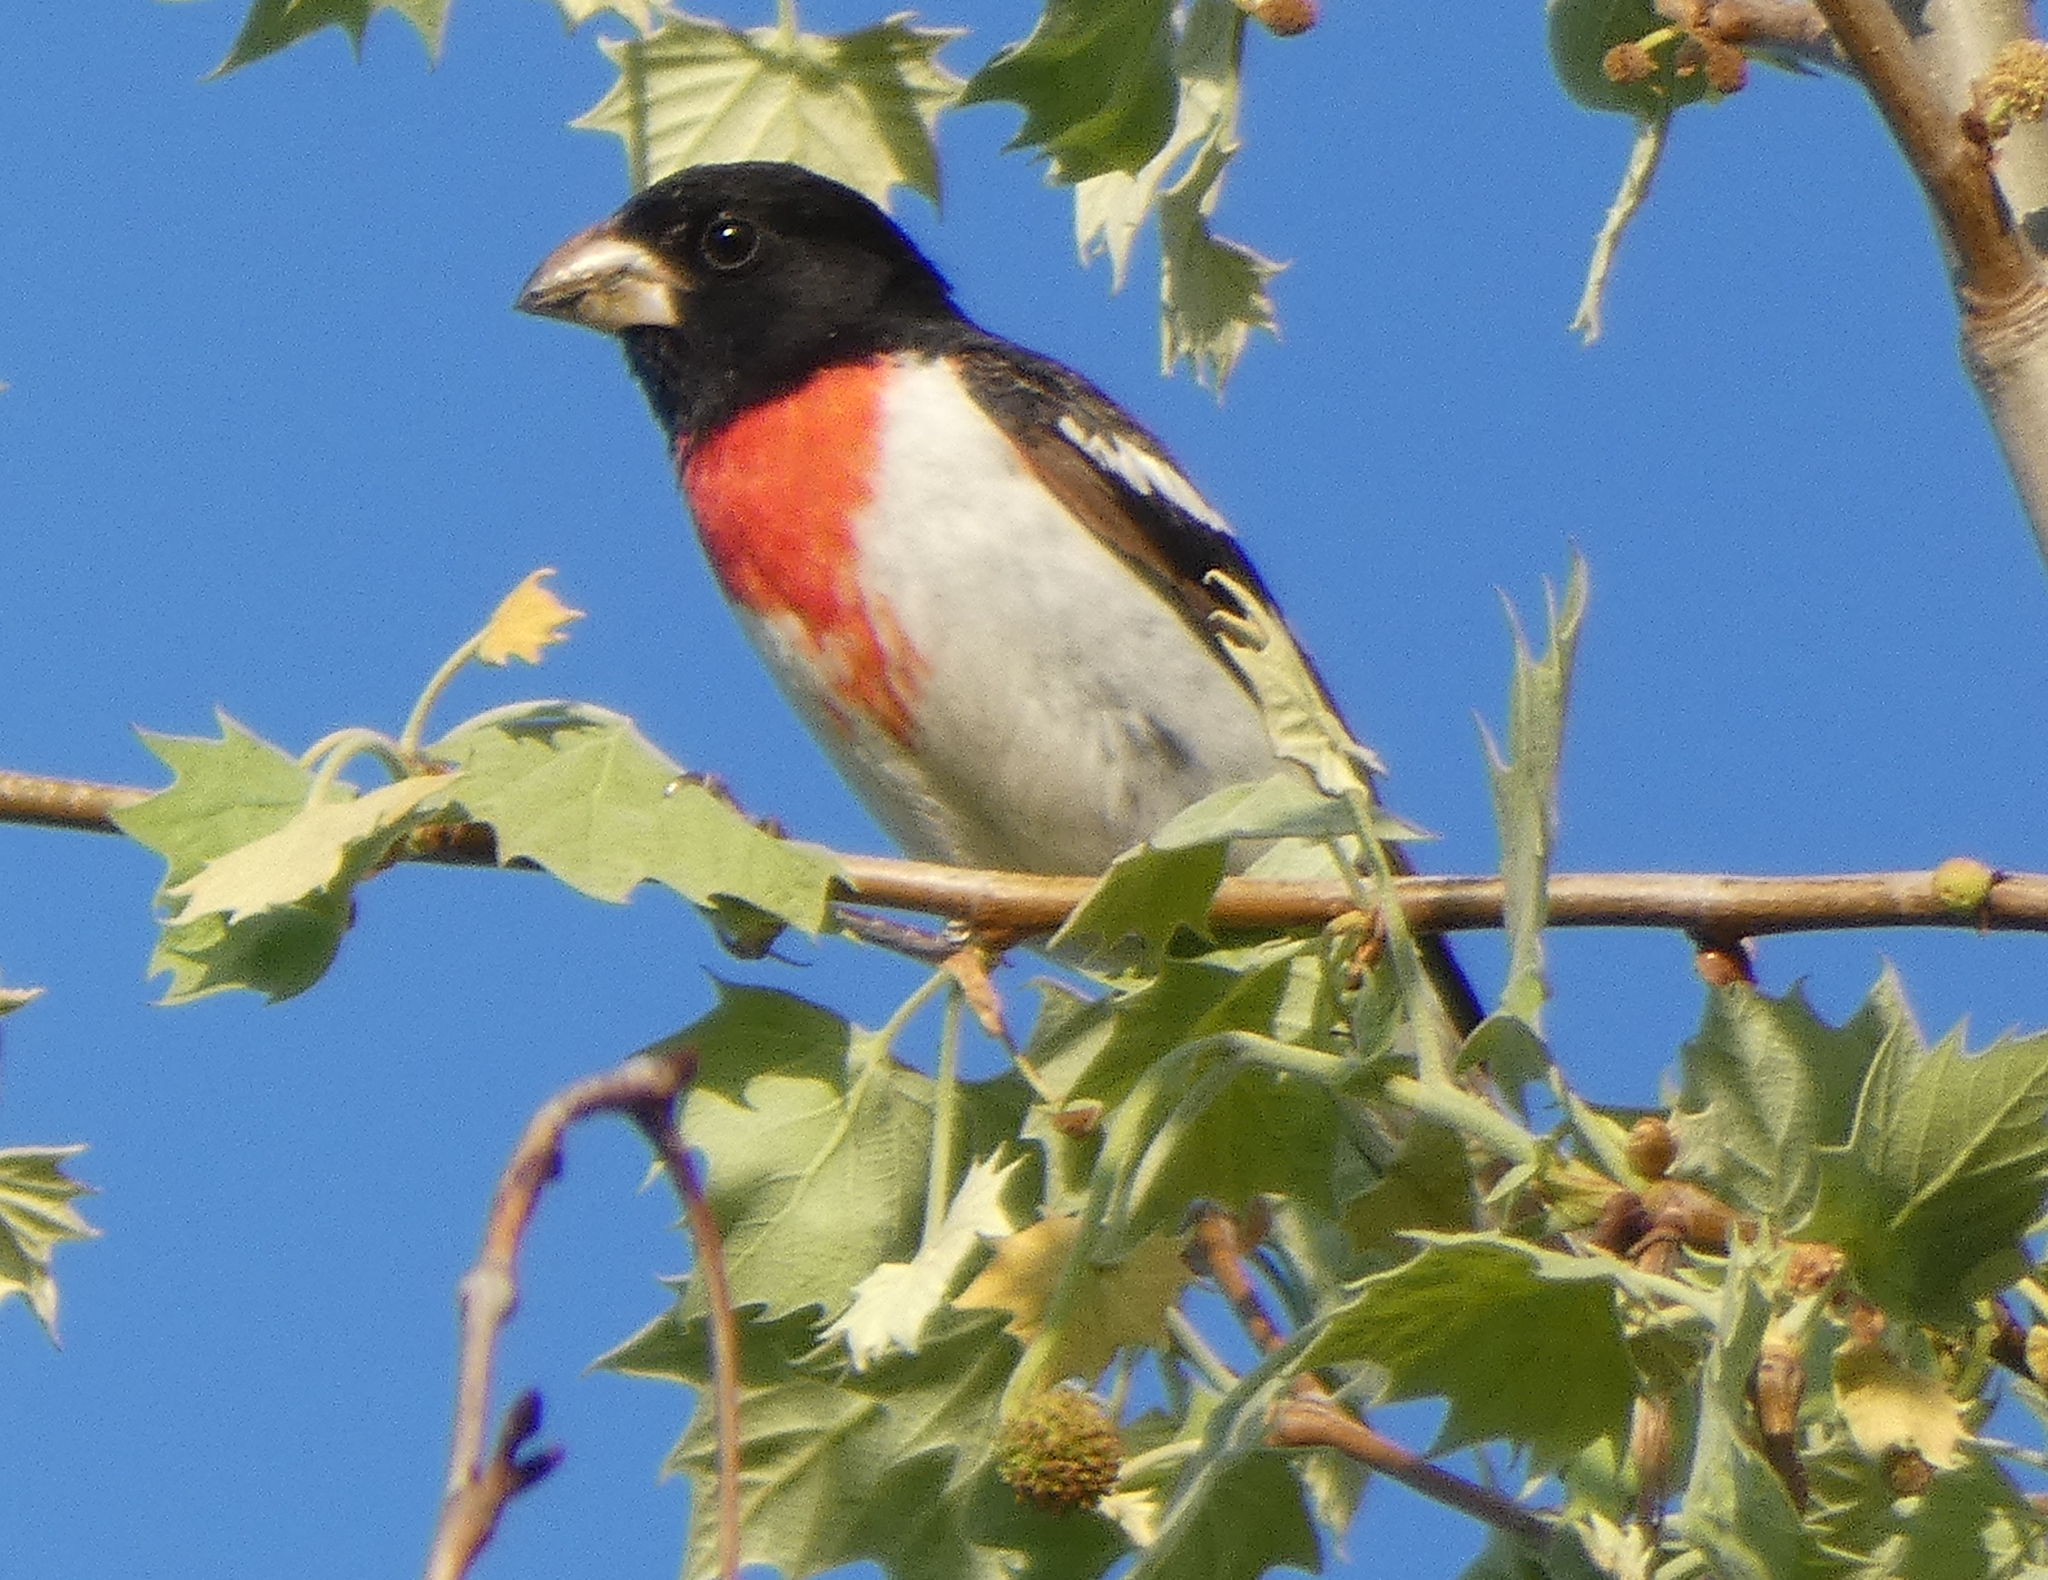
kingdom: Animalia
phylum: Chordata
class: Aves
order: Passeriformes
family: Cardinalidae
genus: Pheucticus
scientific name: Pheucticus ludovicianus
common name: Rose-breasted grosbeak
